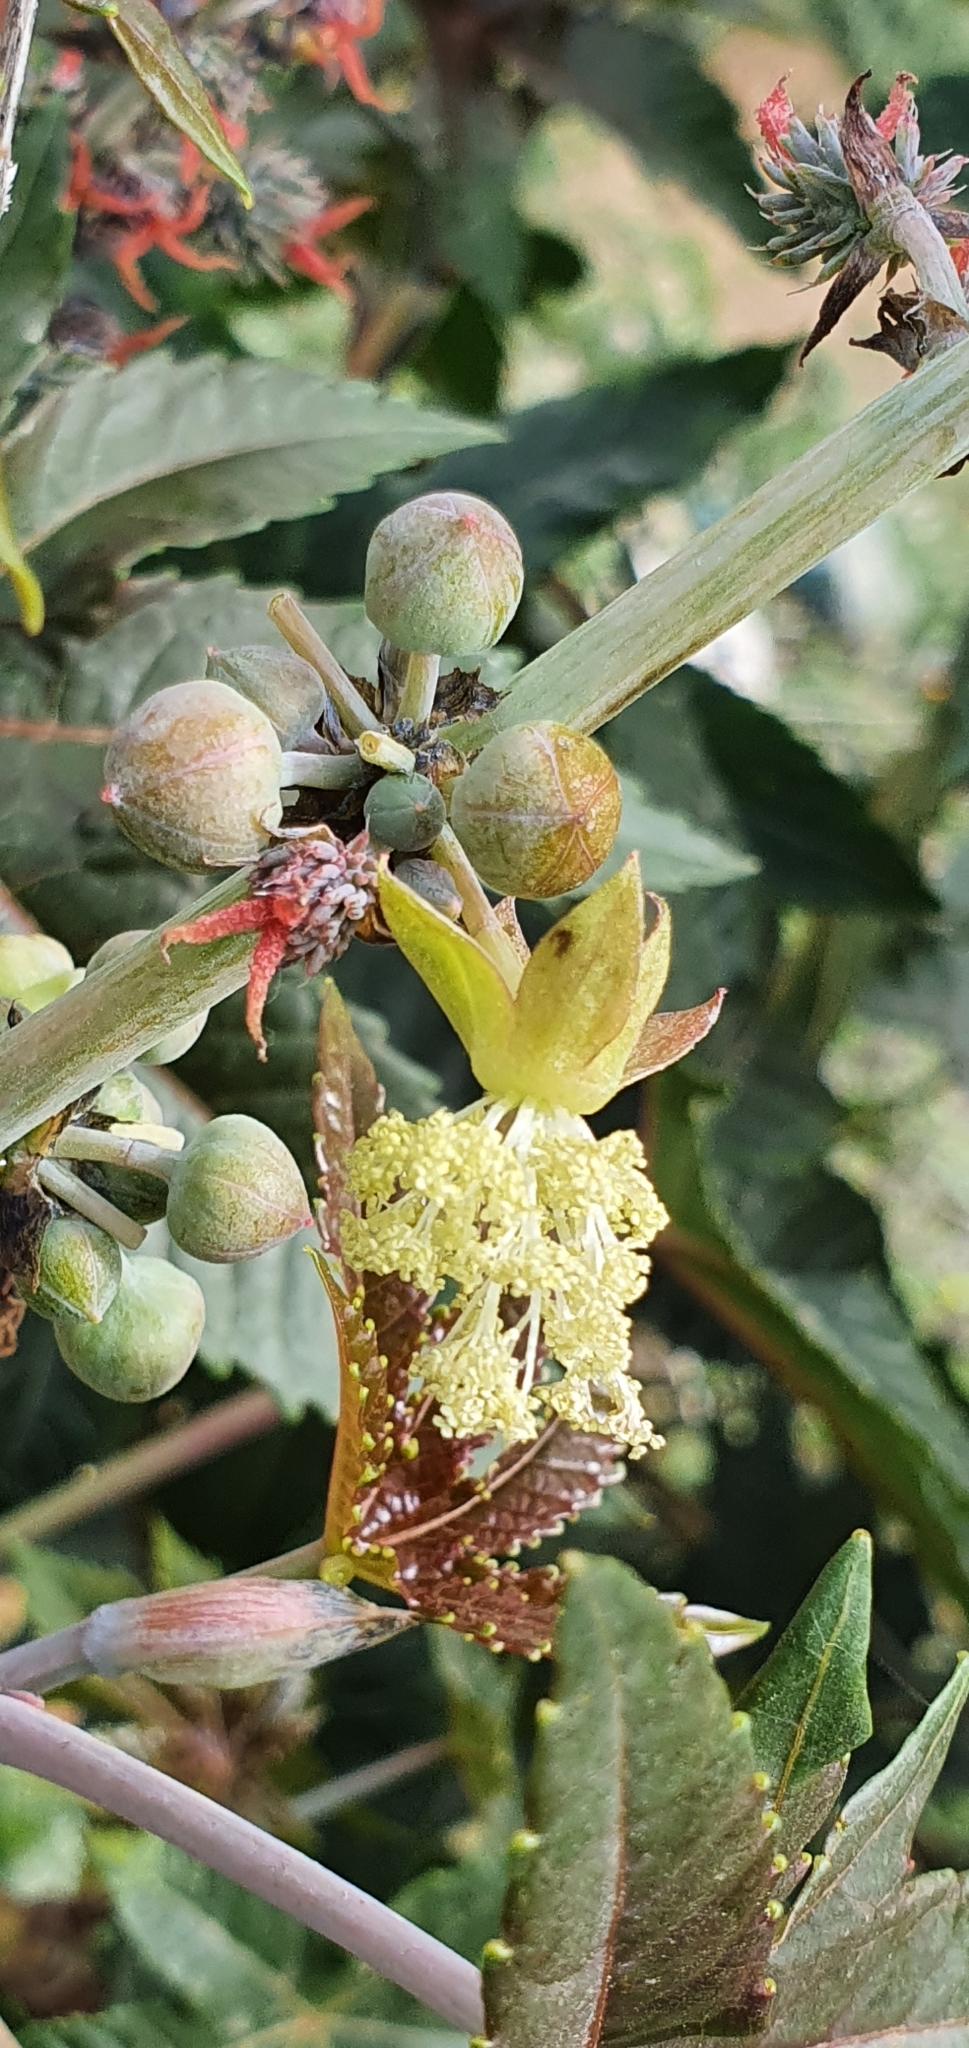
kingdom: Plantae
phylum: Tracheophyta
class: Magnoliopsida
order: Malpighiales
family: Euphorbiaceae
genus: Ricinus
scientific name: Ricinus communis
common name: Castor-oil-plant
